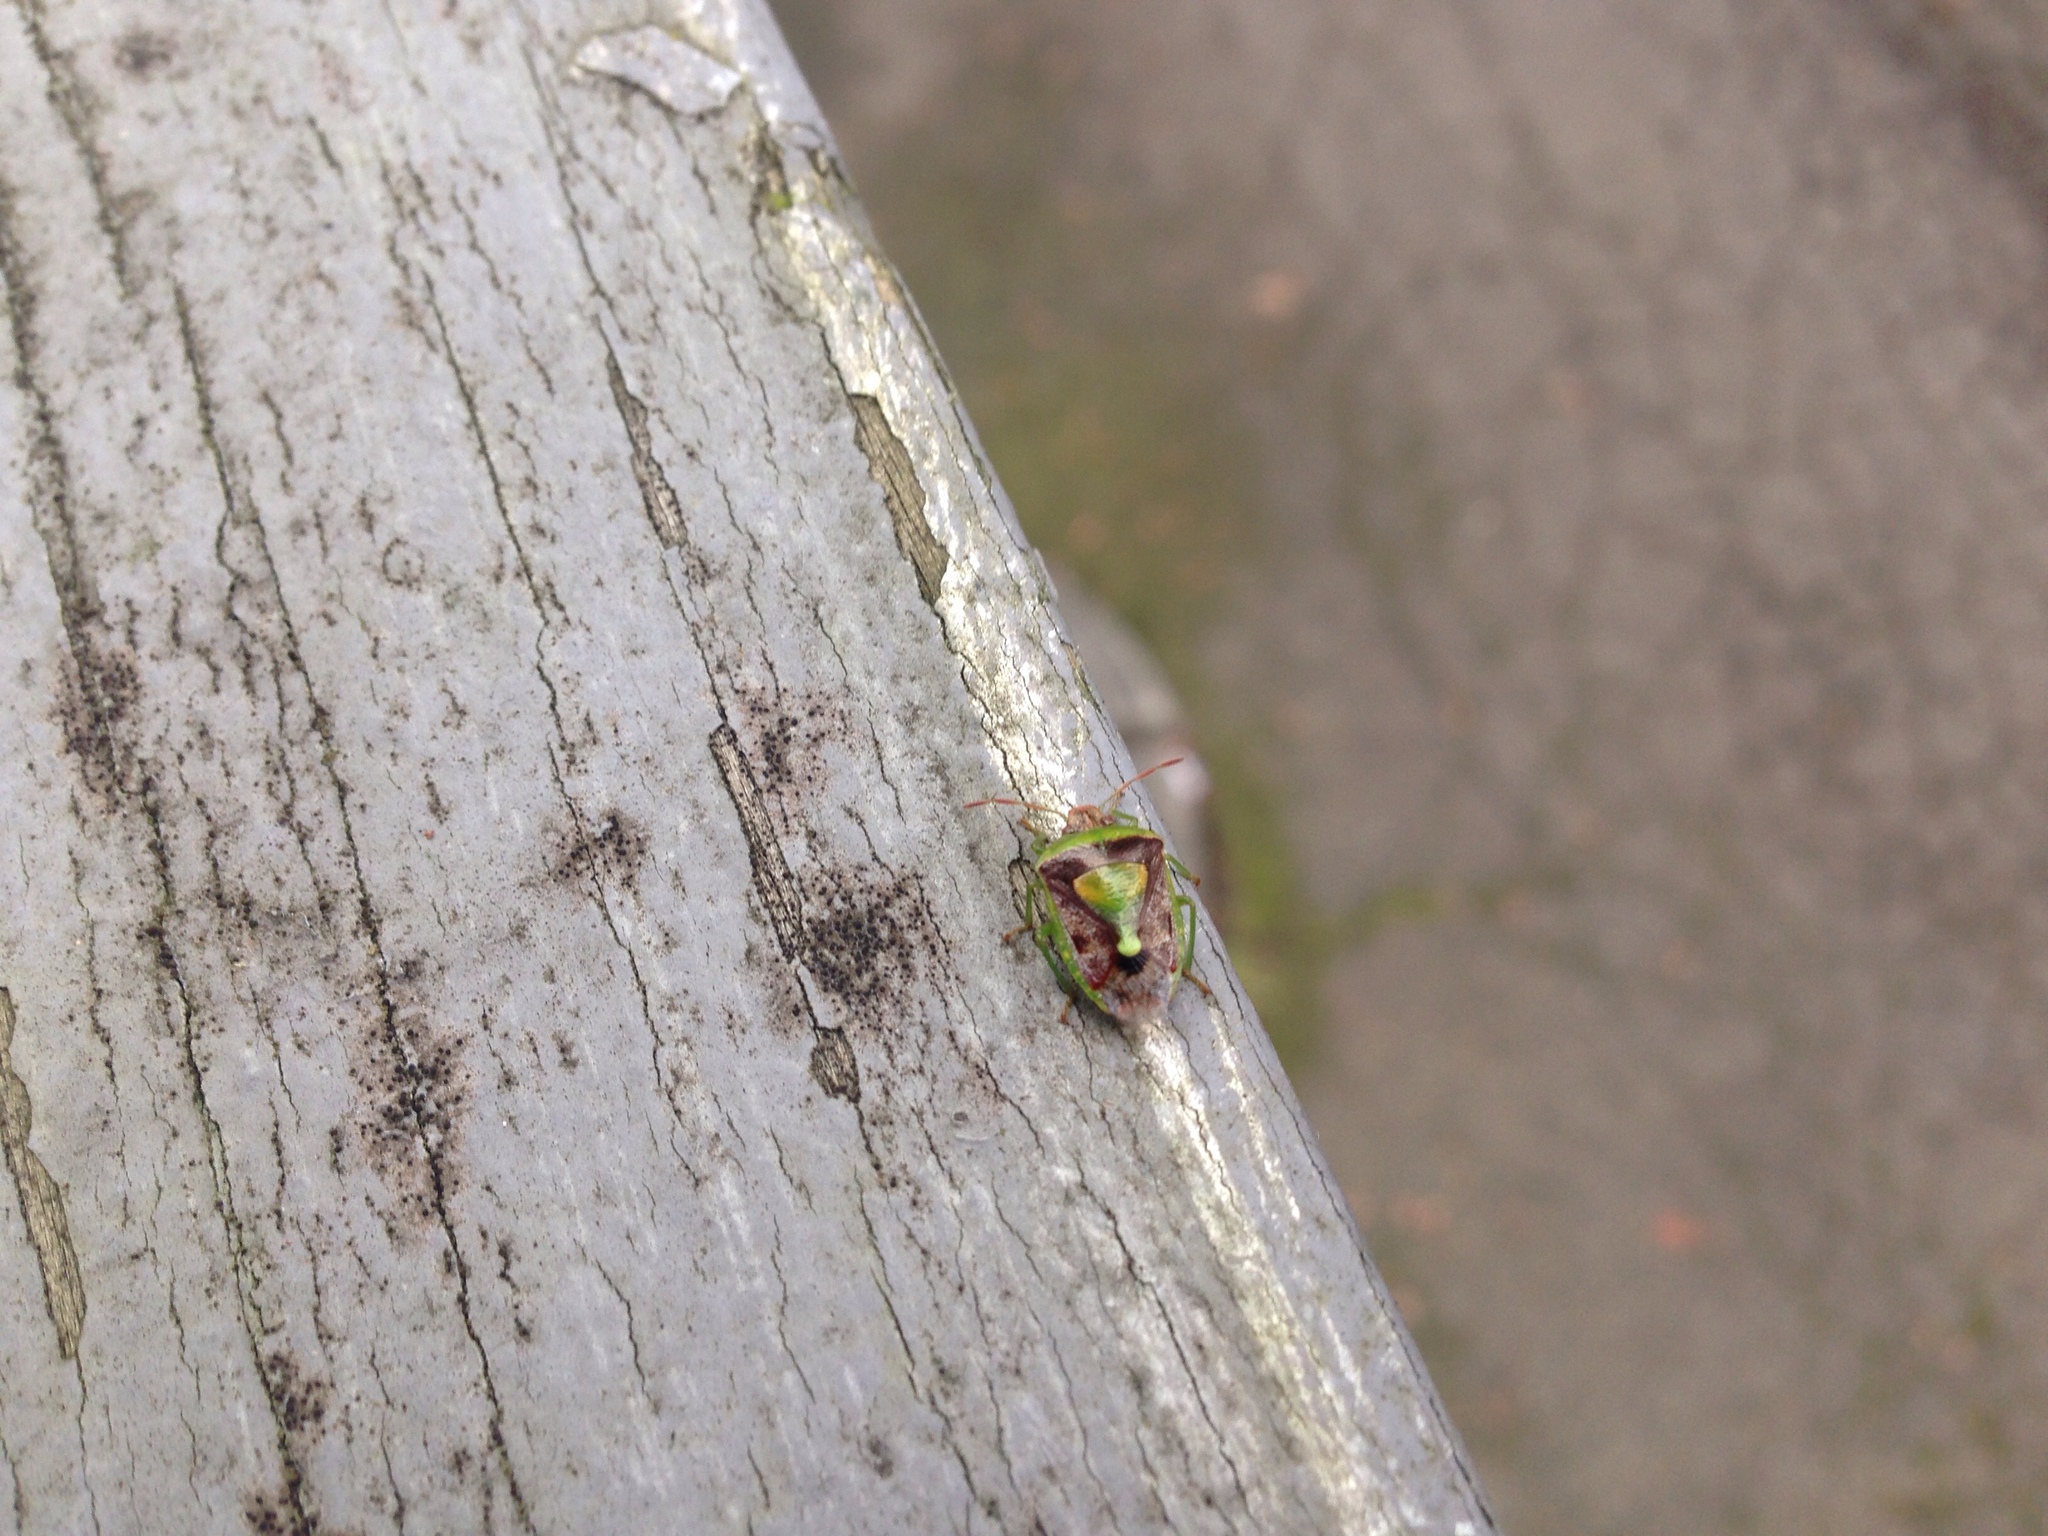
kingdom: Animalia
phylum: Arthropoda
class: Insecta
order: Hemiptera
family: Pentatomidae
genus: Banasa
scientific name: Banasa dimidiata
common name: Green burgundy stink bug
